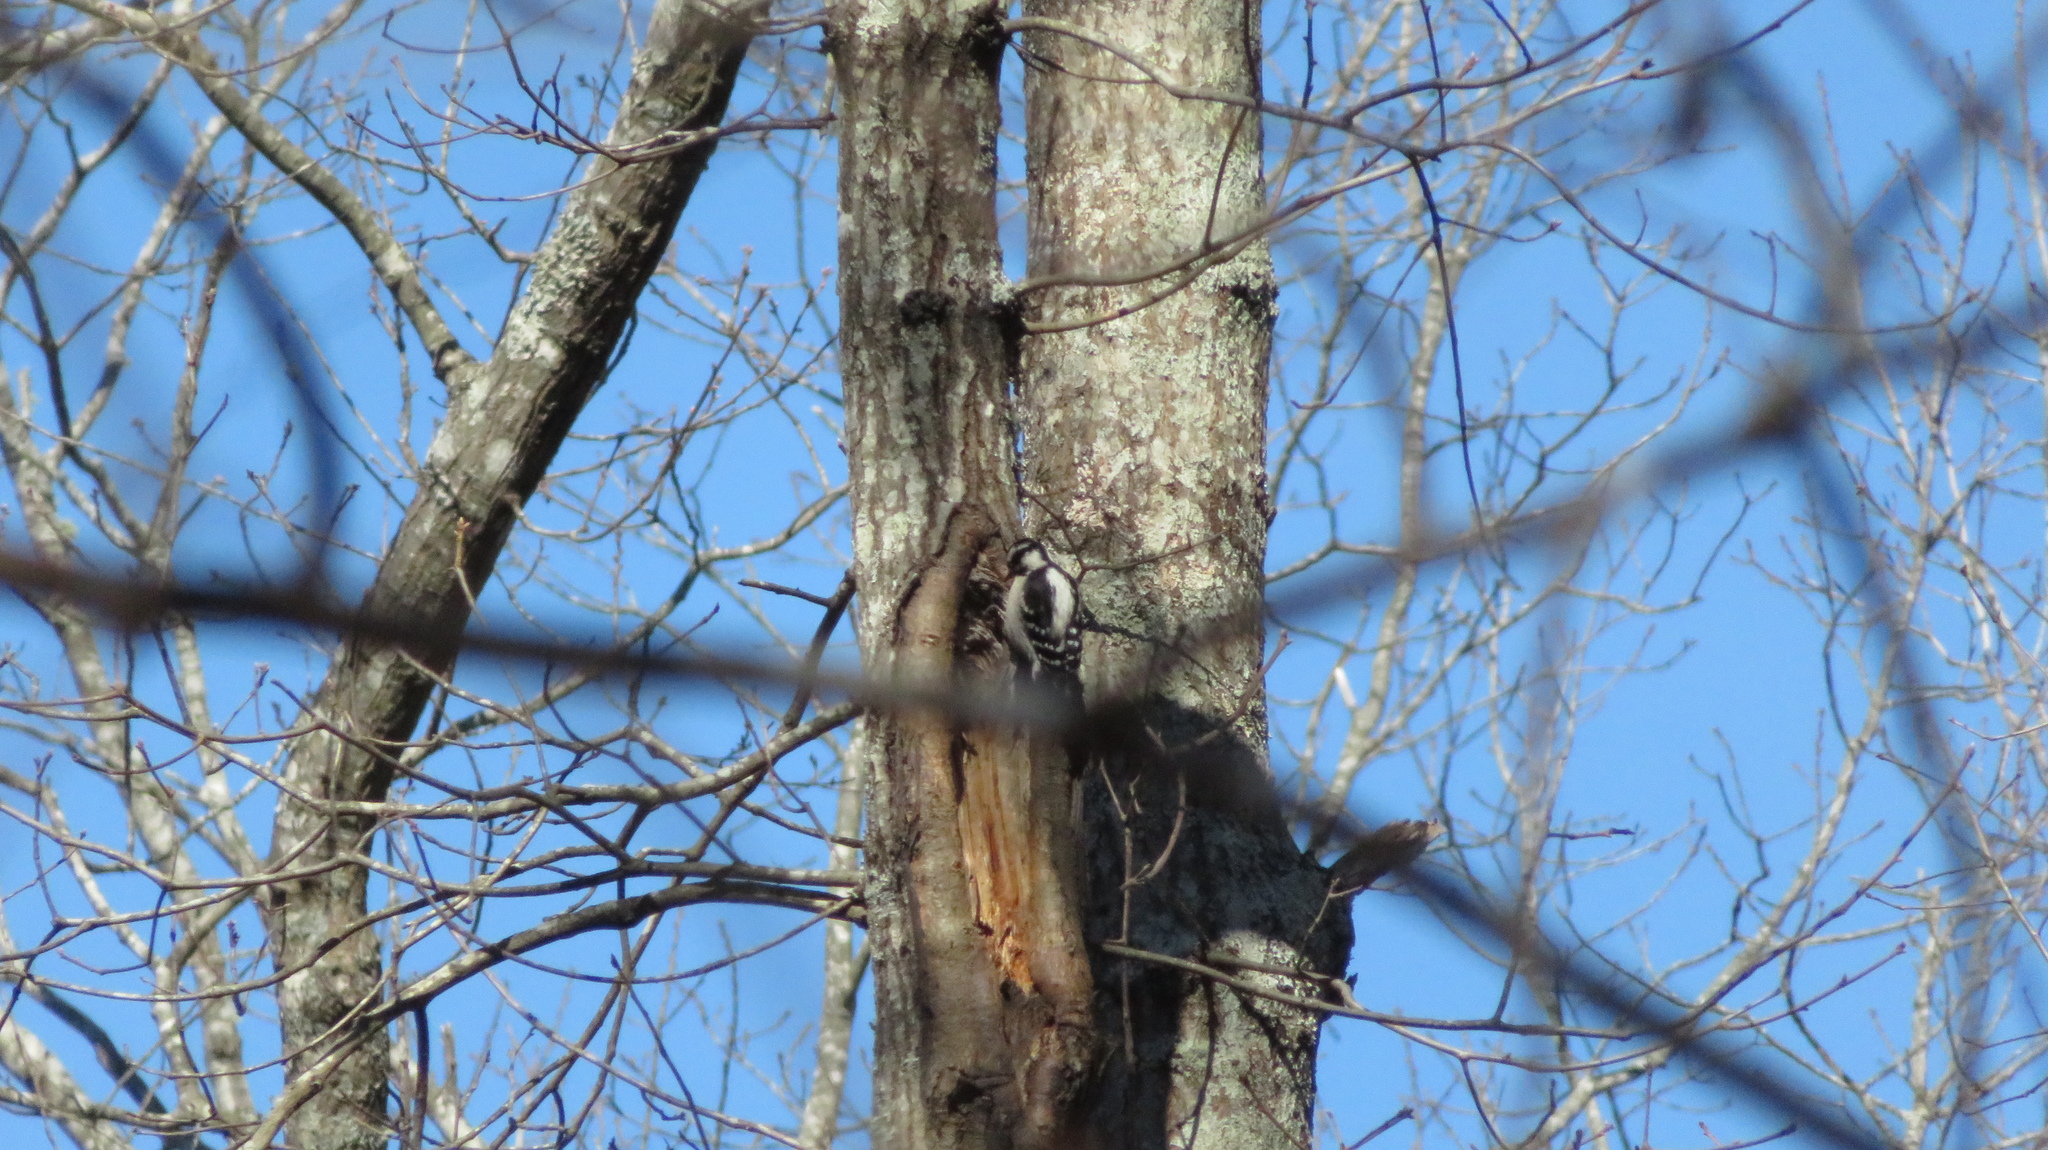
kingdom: Animalia
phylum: Chordata
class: Aves
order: Piciformes
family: Picidae
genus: Dryobates
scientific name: Dryobates pubescens
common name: Downy woodpecker
